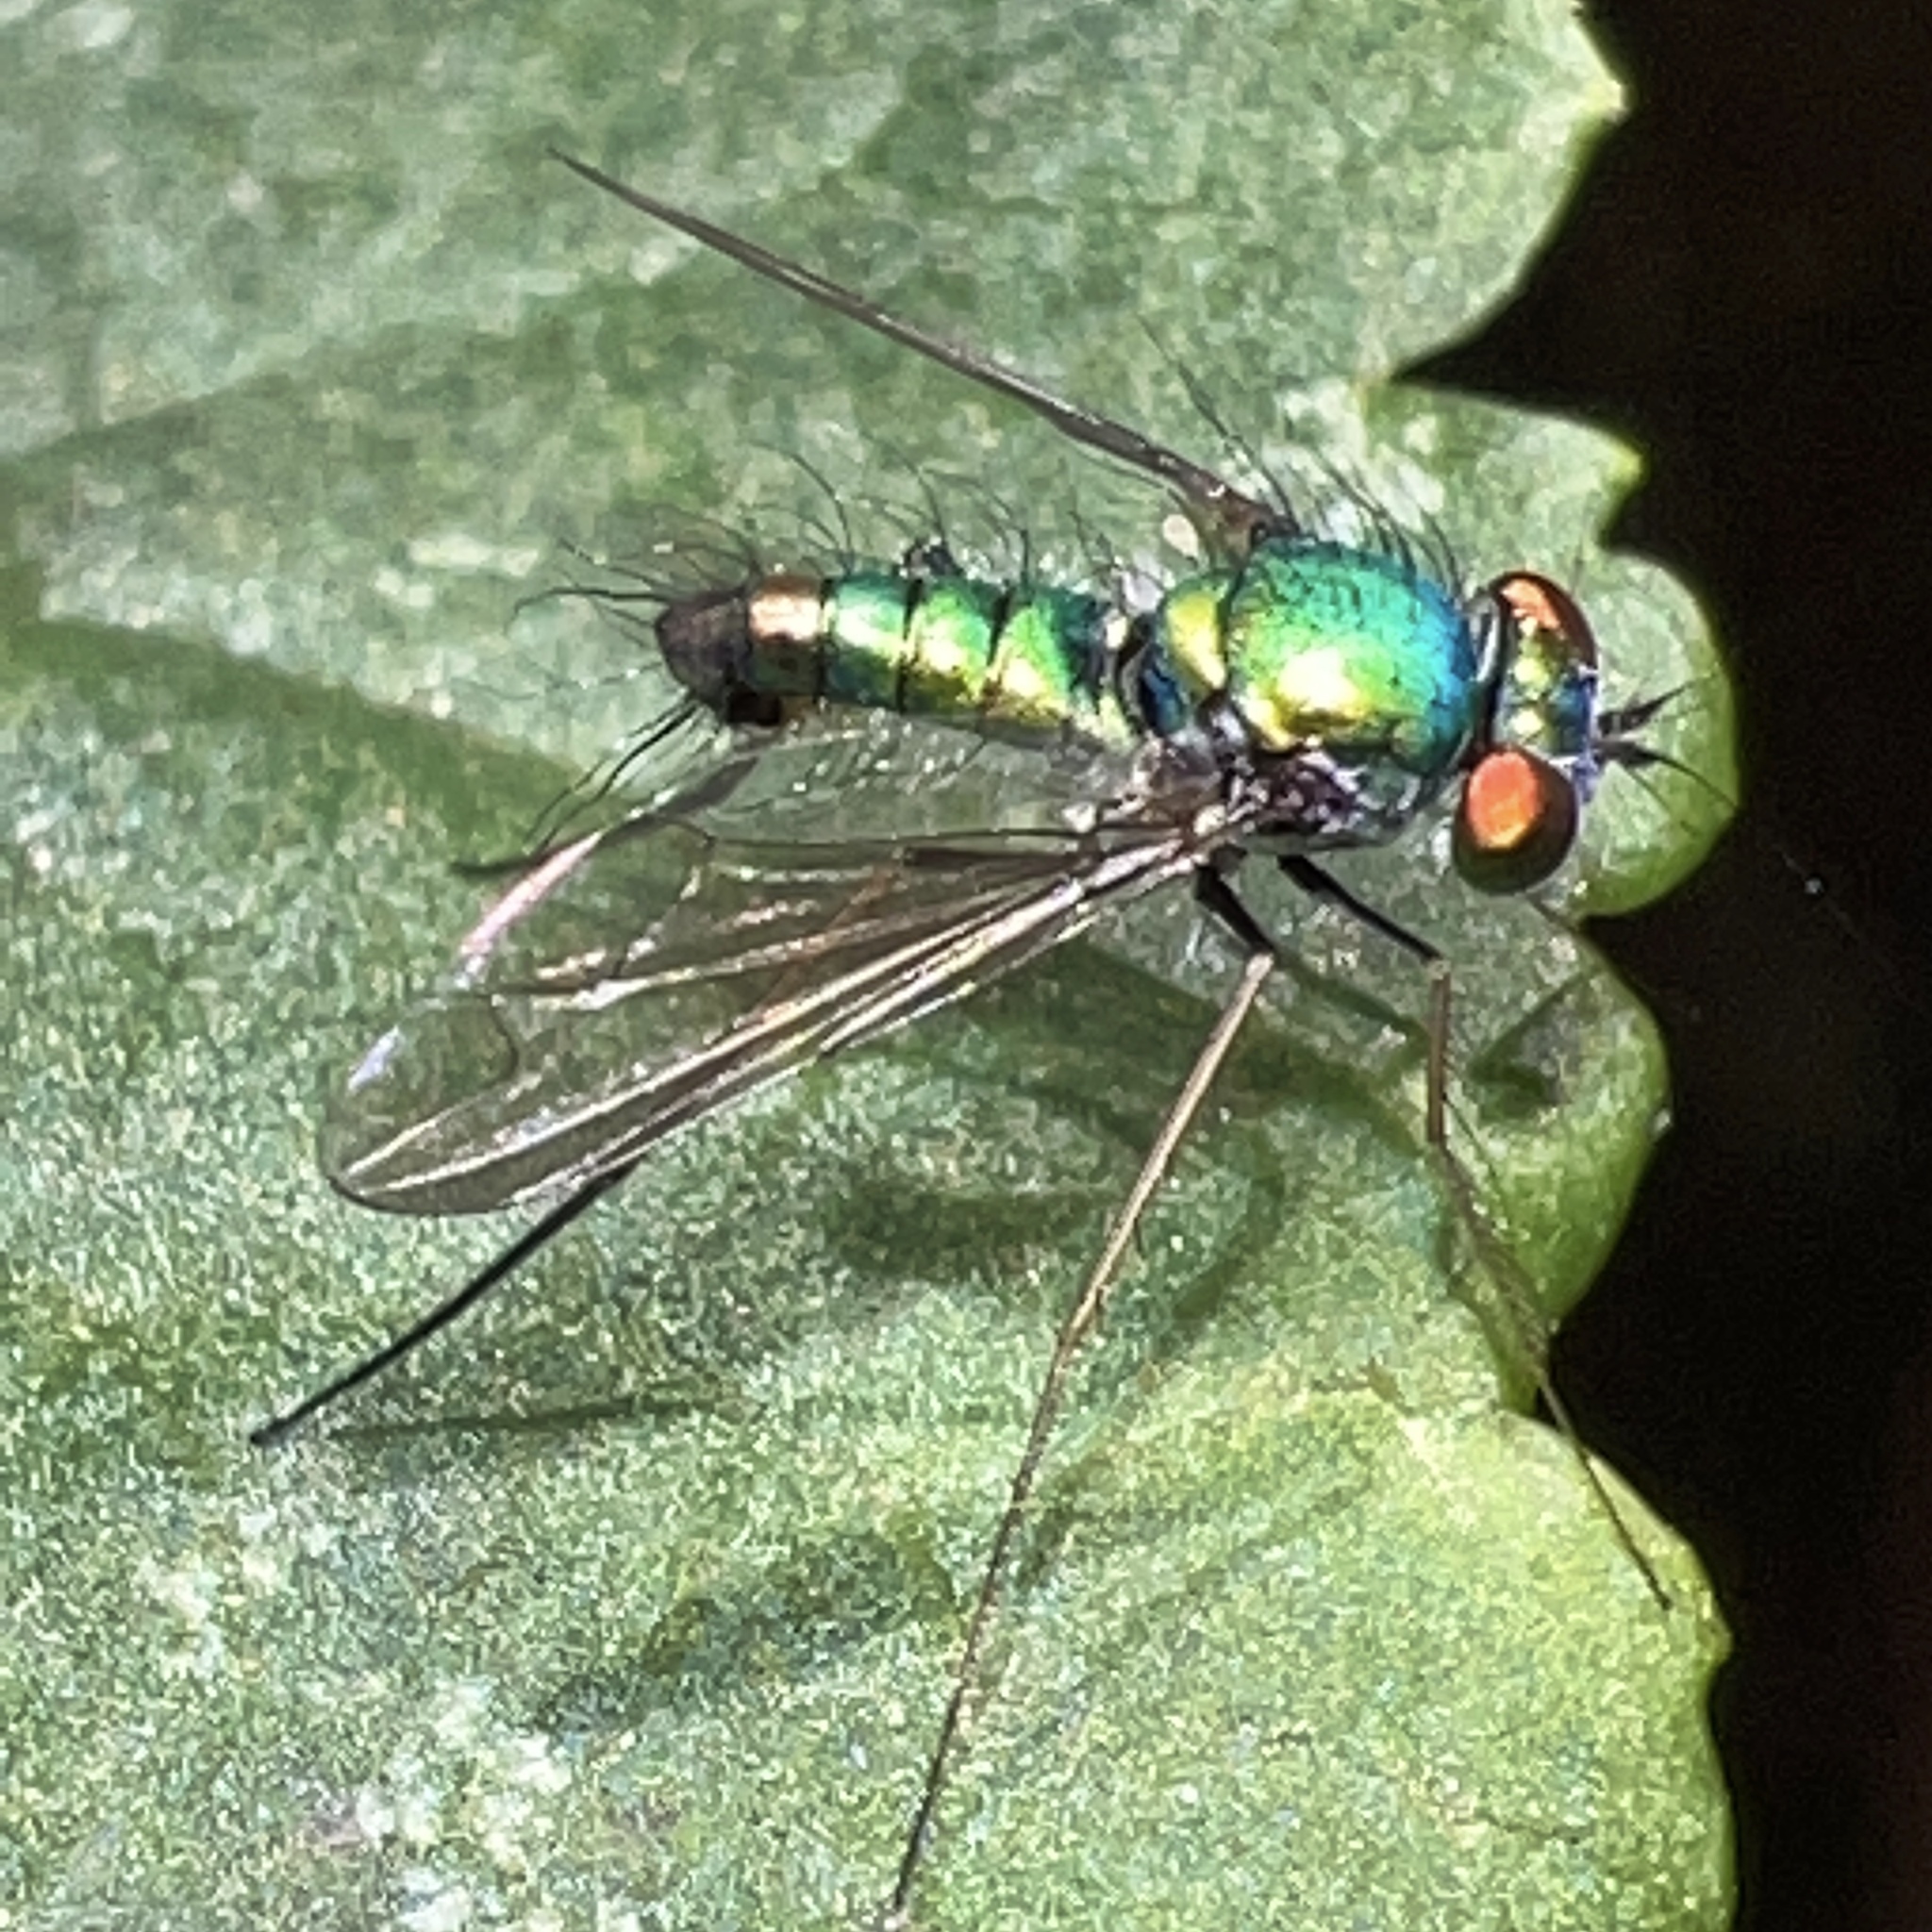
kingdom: Animalia
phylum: Arthropoda
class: Insecta
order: Diptera
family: Dolichopodidae
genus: Condylostylus
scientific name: Condylostylus comatus
